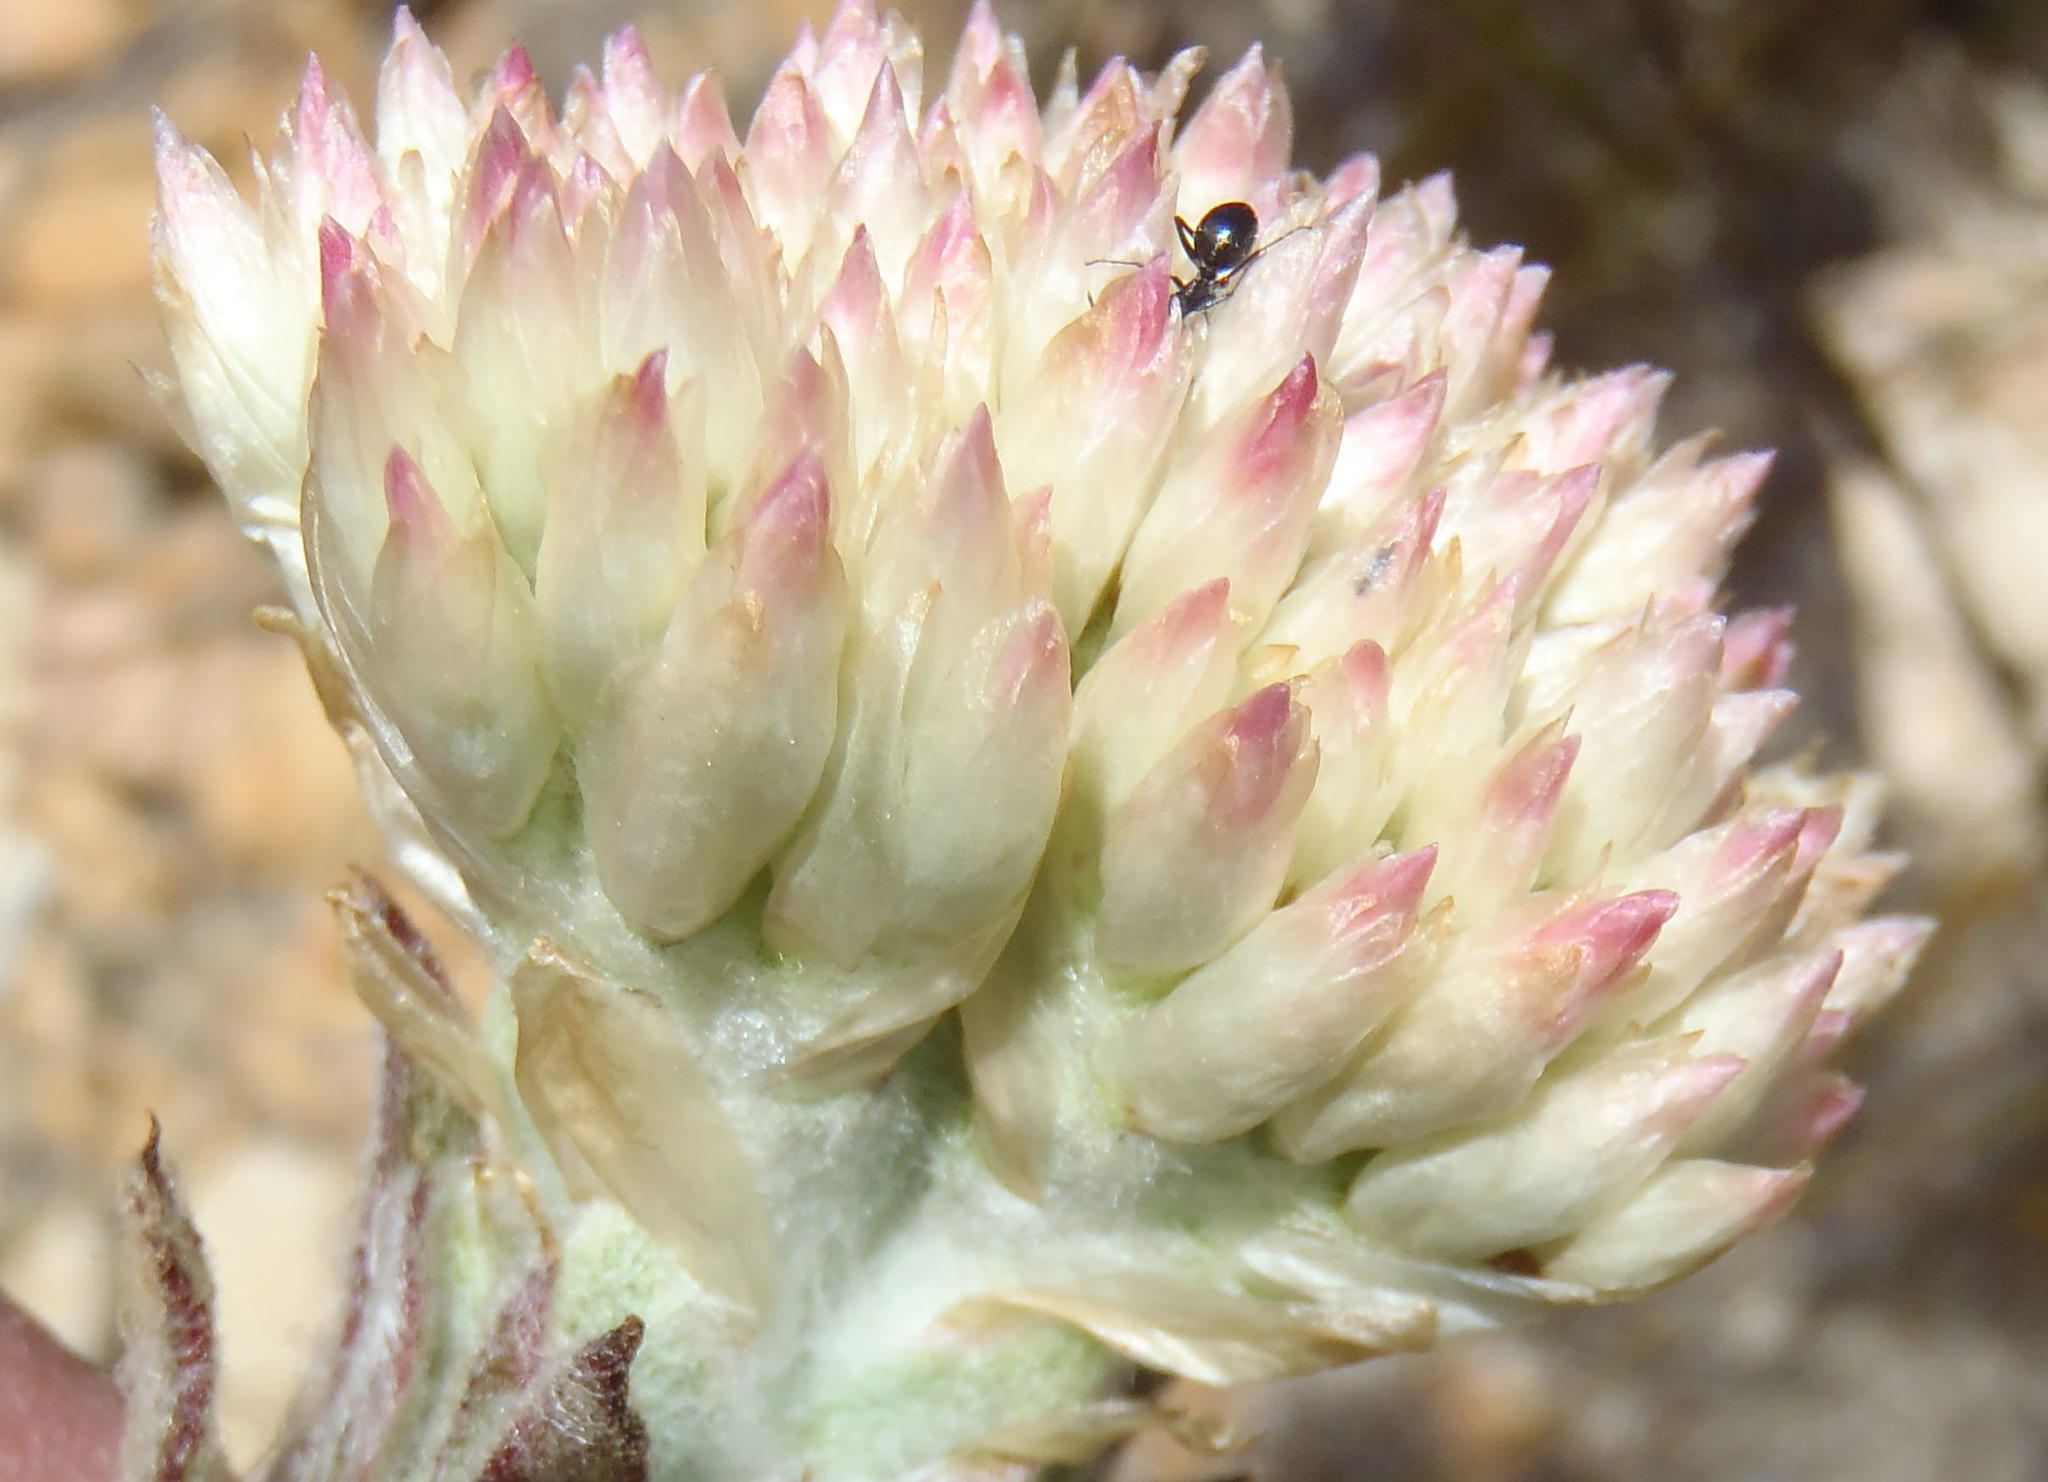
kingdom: Plantae
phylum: Tracheophyta
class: Magnoliopsida
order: Asterales
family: Asteraceae
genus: Syncarpha
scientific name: Syncarpha milleflora
